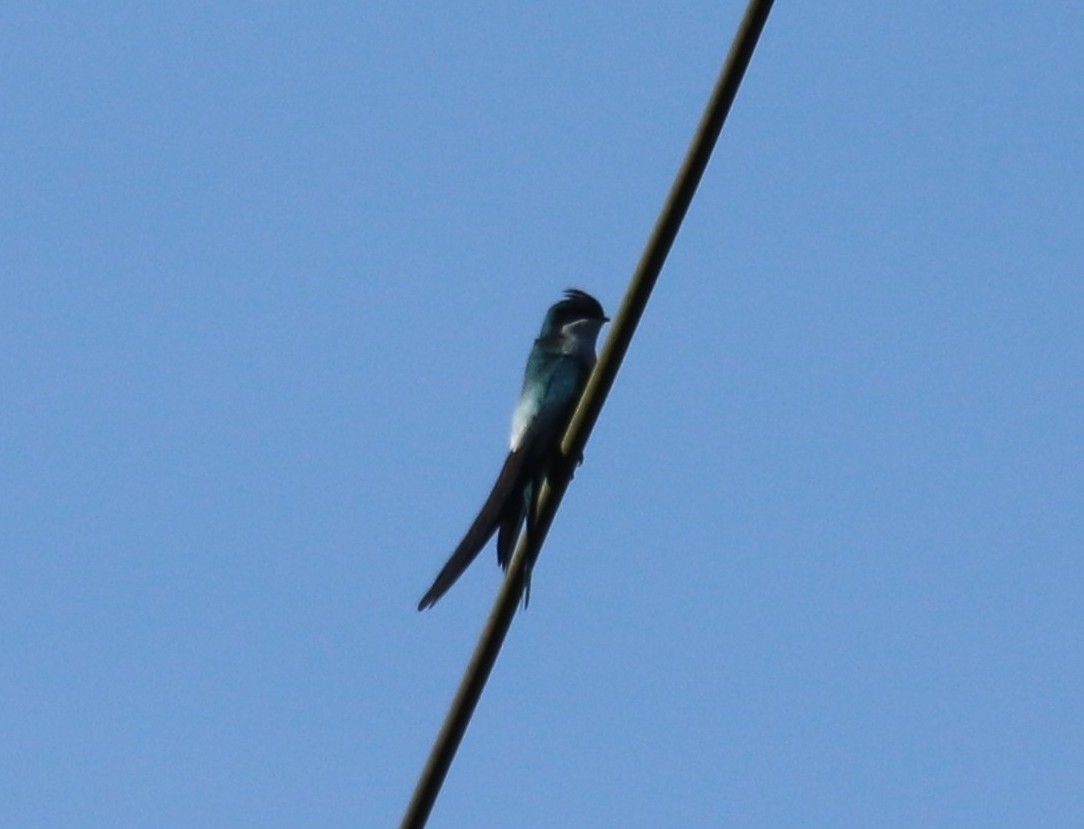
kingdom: Animalia
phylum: Chordata
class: Aves
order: Apodiformes
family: Hemiprocnidae
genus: Hemiprocne
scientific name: Hemiprocne longipennis
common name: Grey-rumped treeswift
